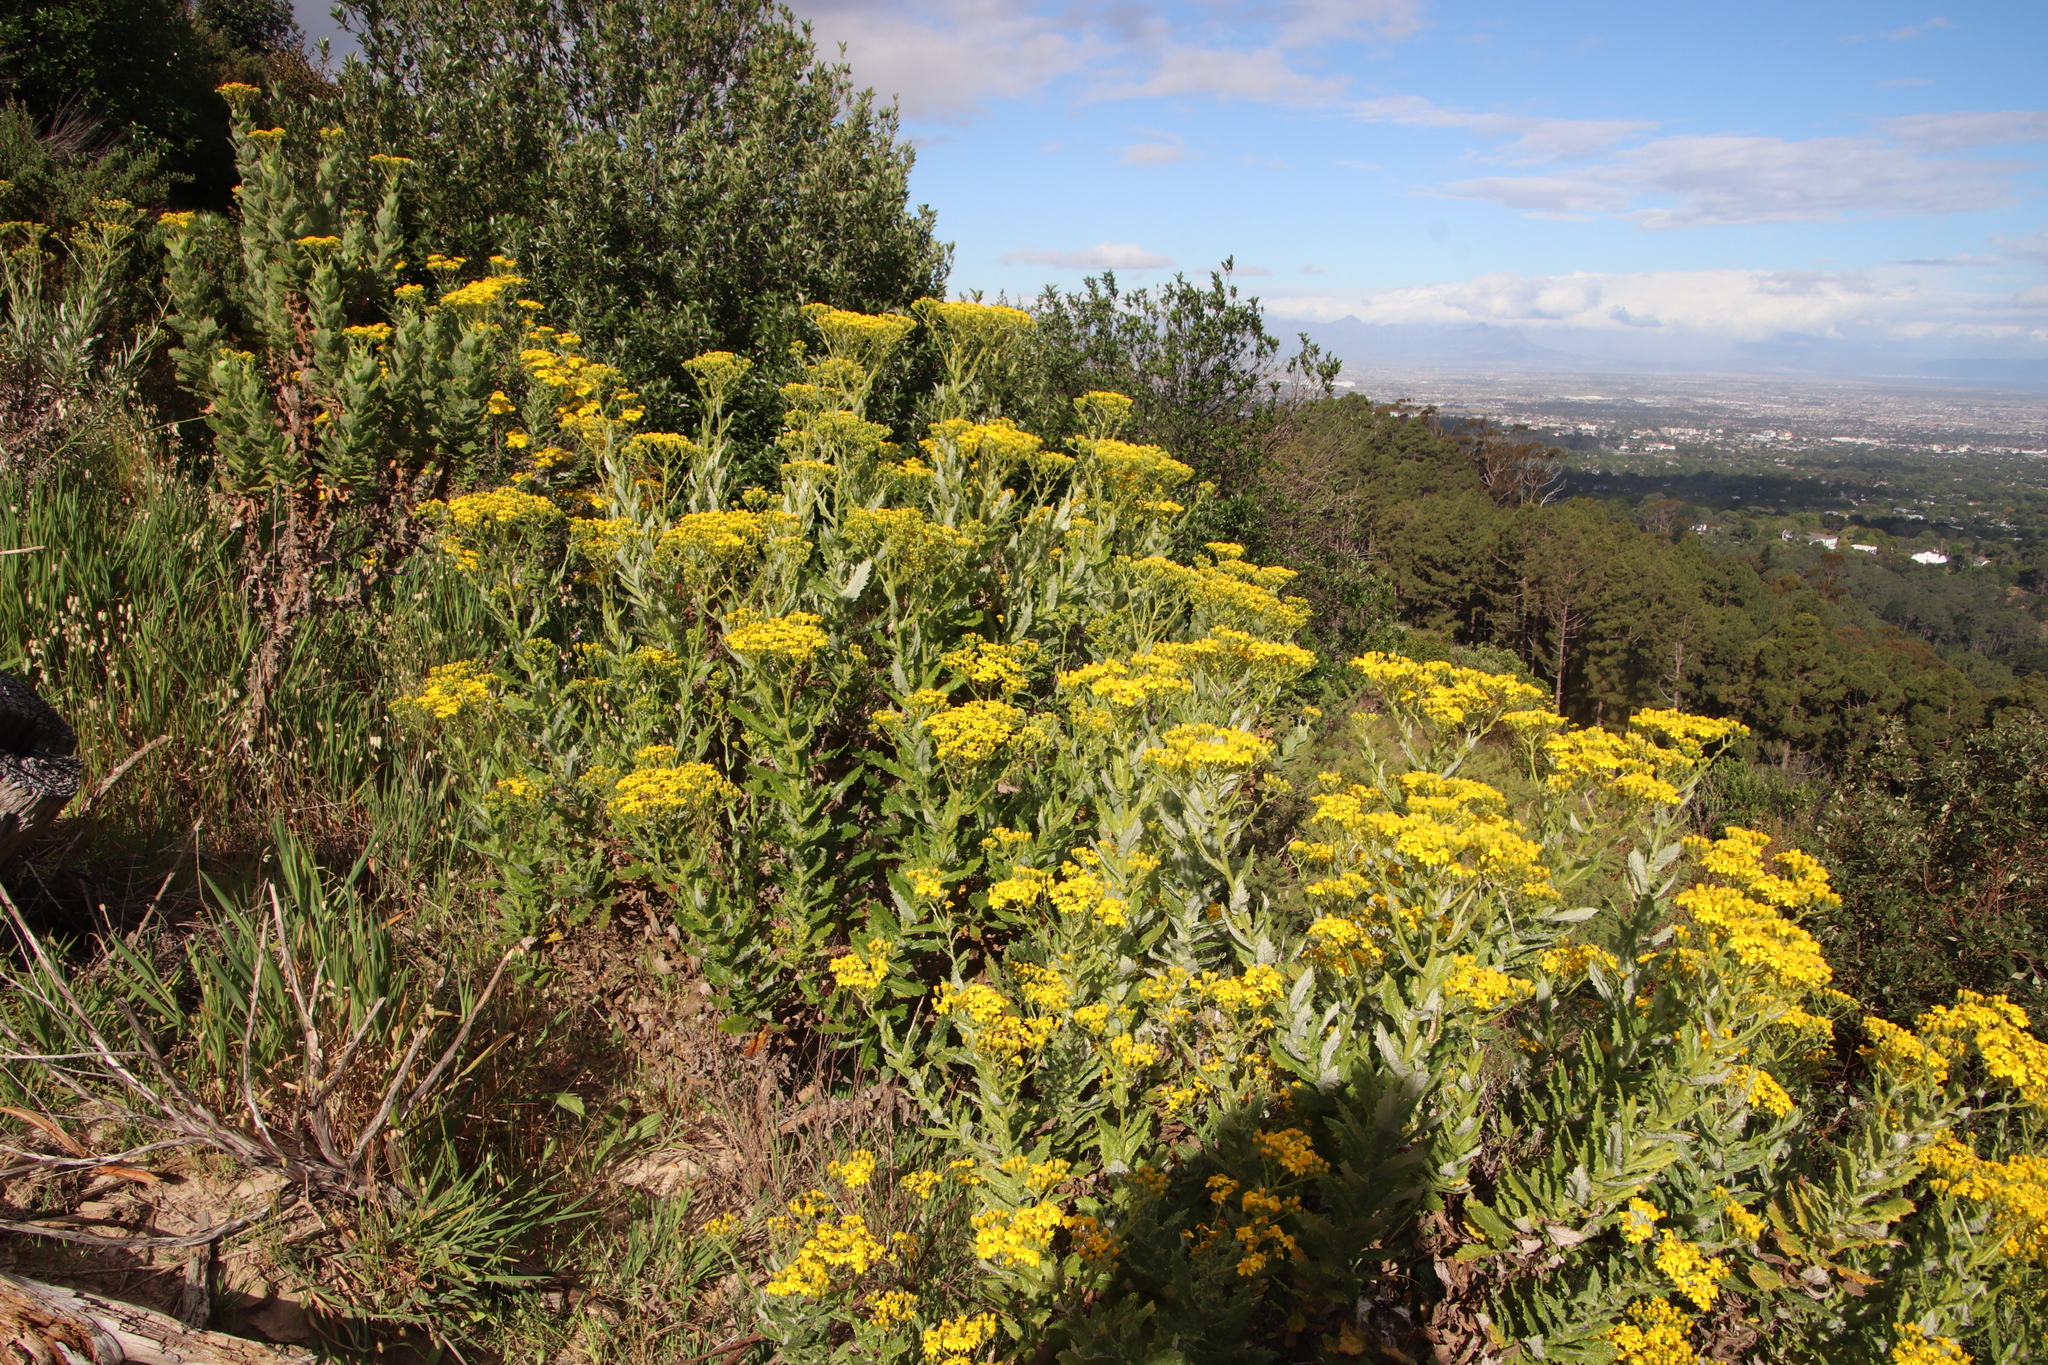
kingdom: Plantae
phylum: Tracheophyta
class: Magnoliopsida
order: Asterales
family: Asteraceae
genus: Senecio
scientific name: Senecio rigidus
